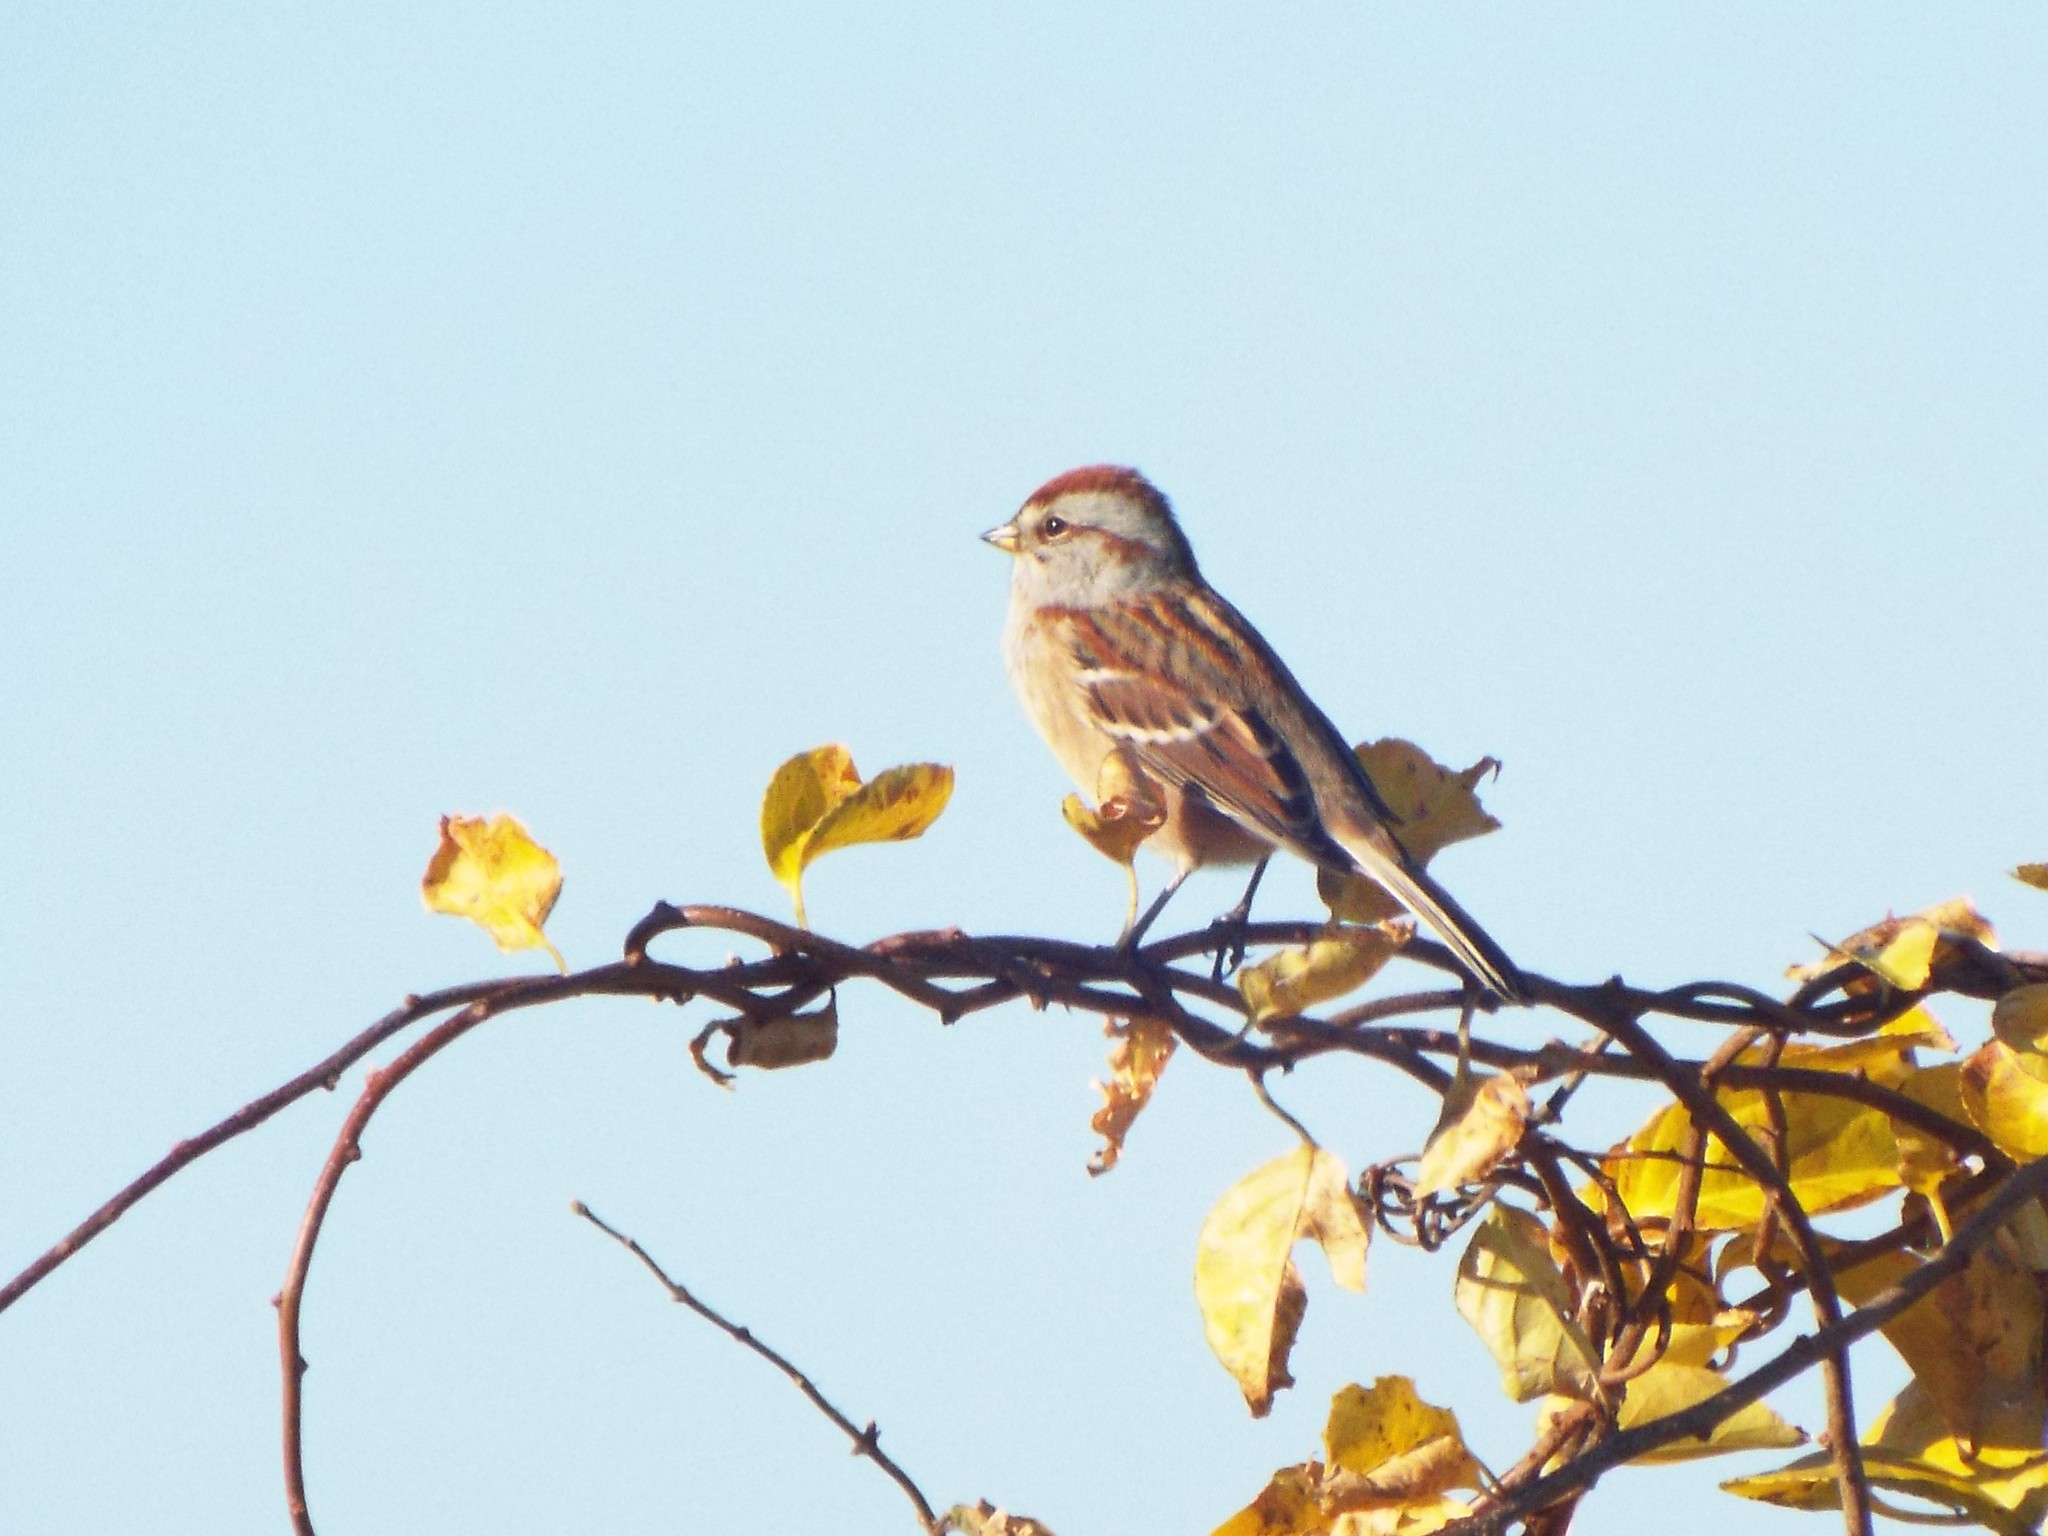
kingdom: Animalia
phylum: Chordata
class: Aves
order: Passeriformes
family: Passerellidae
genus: Spizelloides
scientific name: Spizelloides arborea
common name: American tree sparrow
